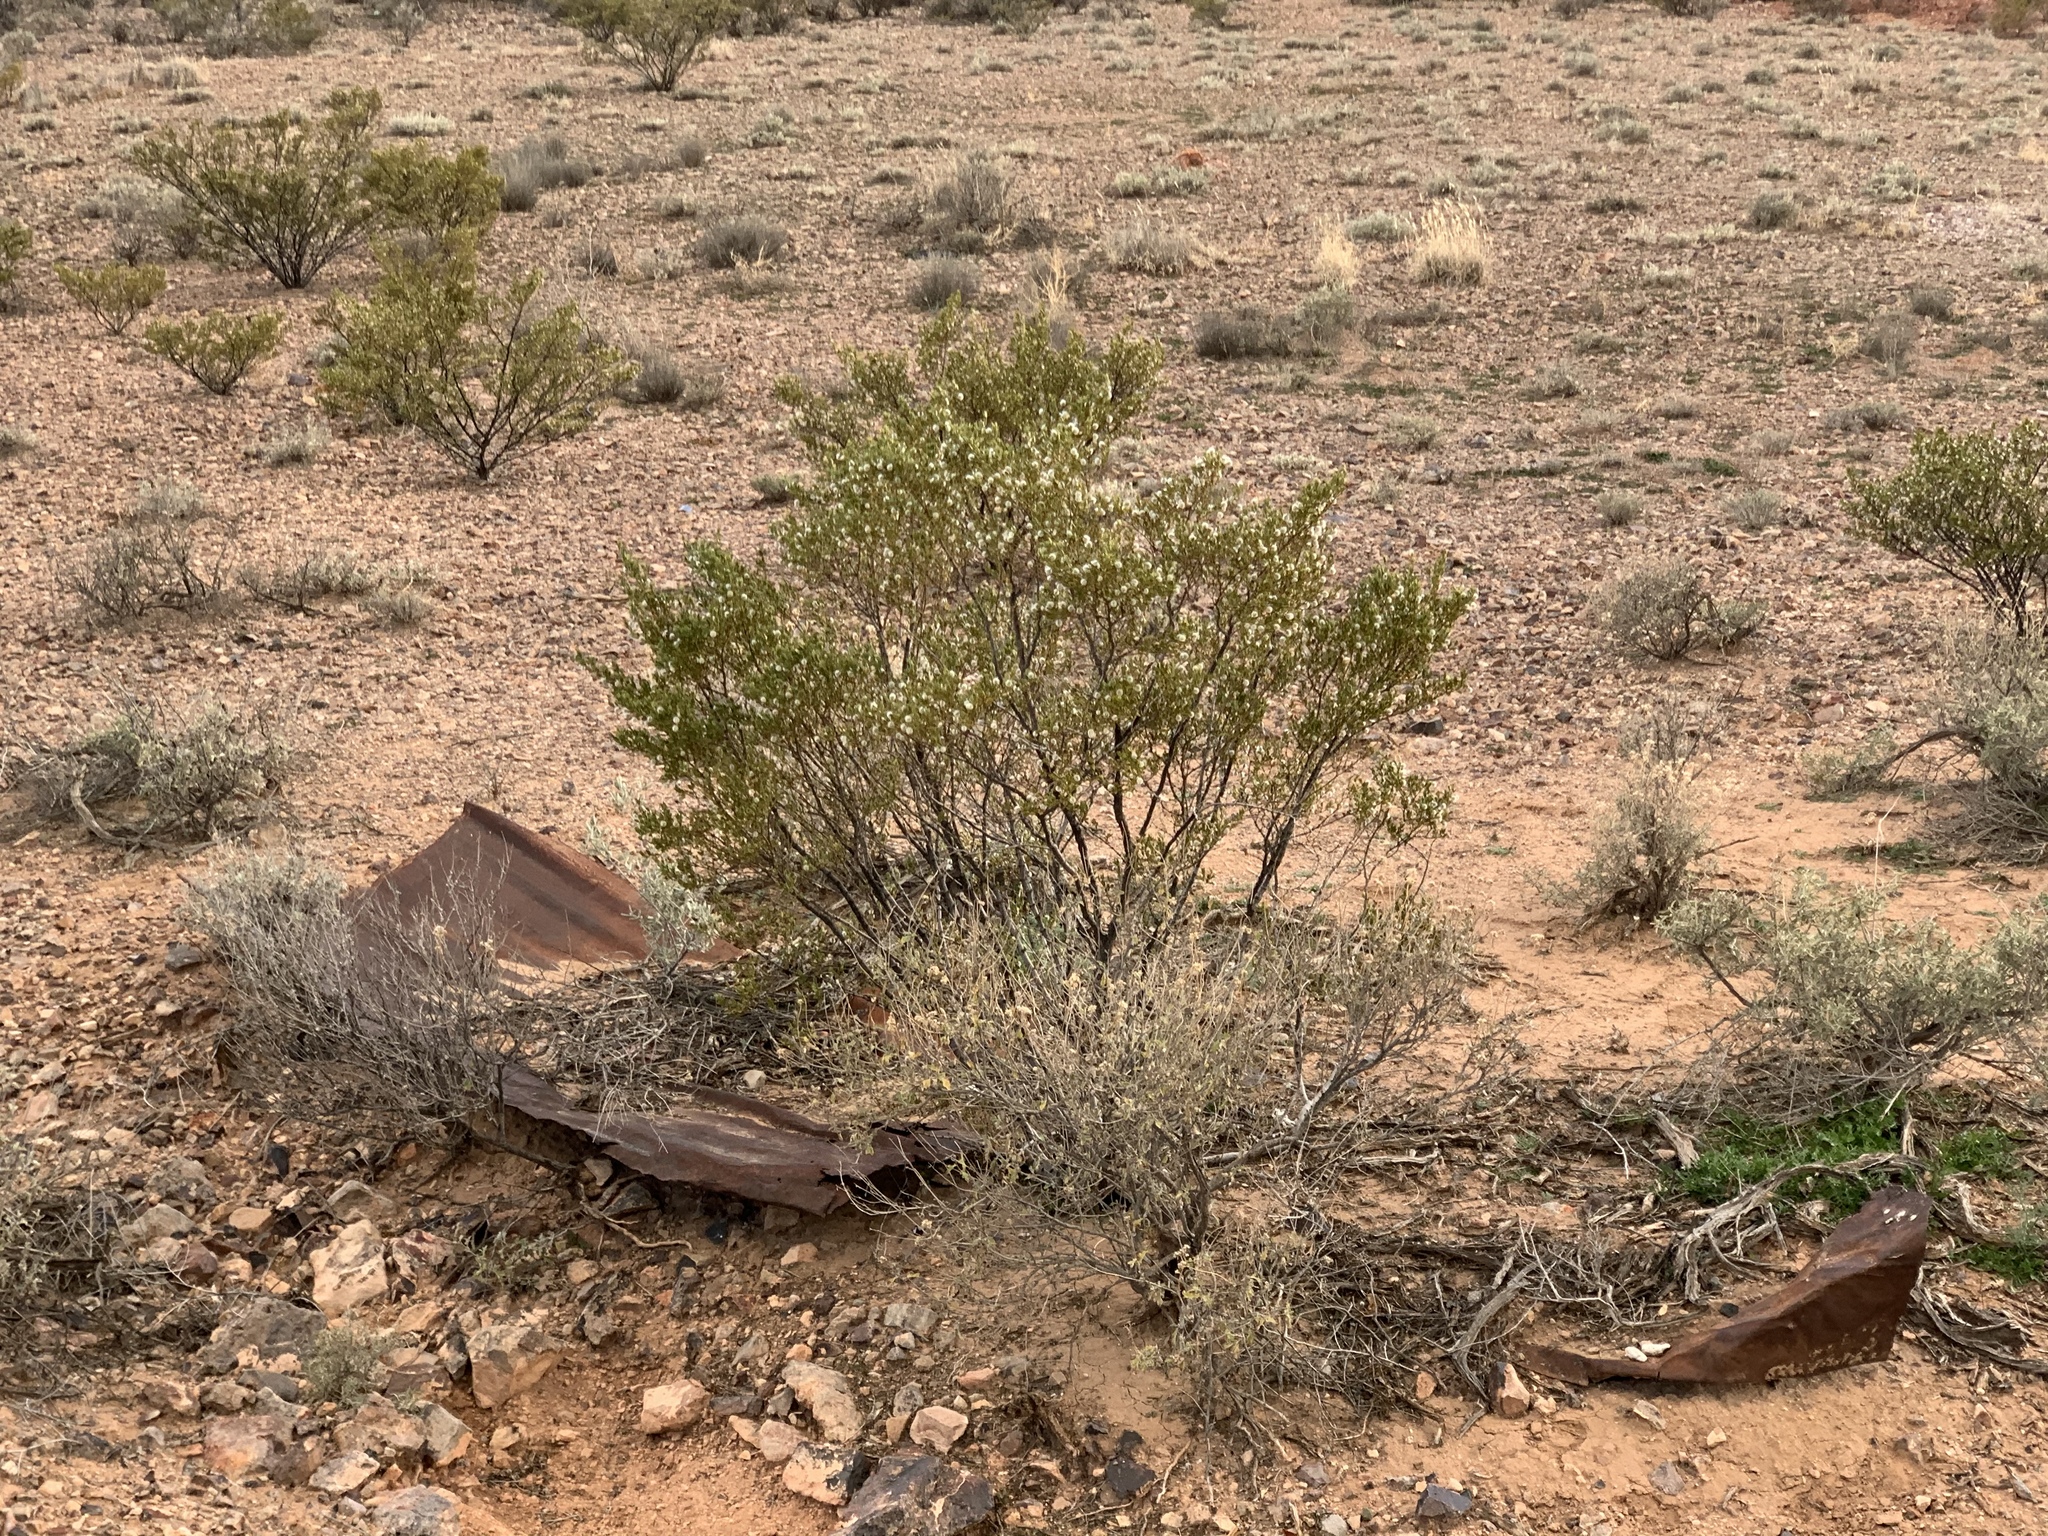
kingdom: Plantae
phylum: Tracheophyta
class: Magnoliopsida
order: Zygophyllales
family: Zygophyllaceae
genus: Larrea
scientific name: Larrea tridentata
